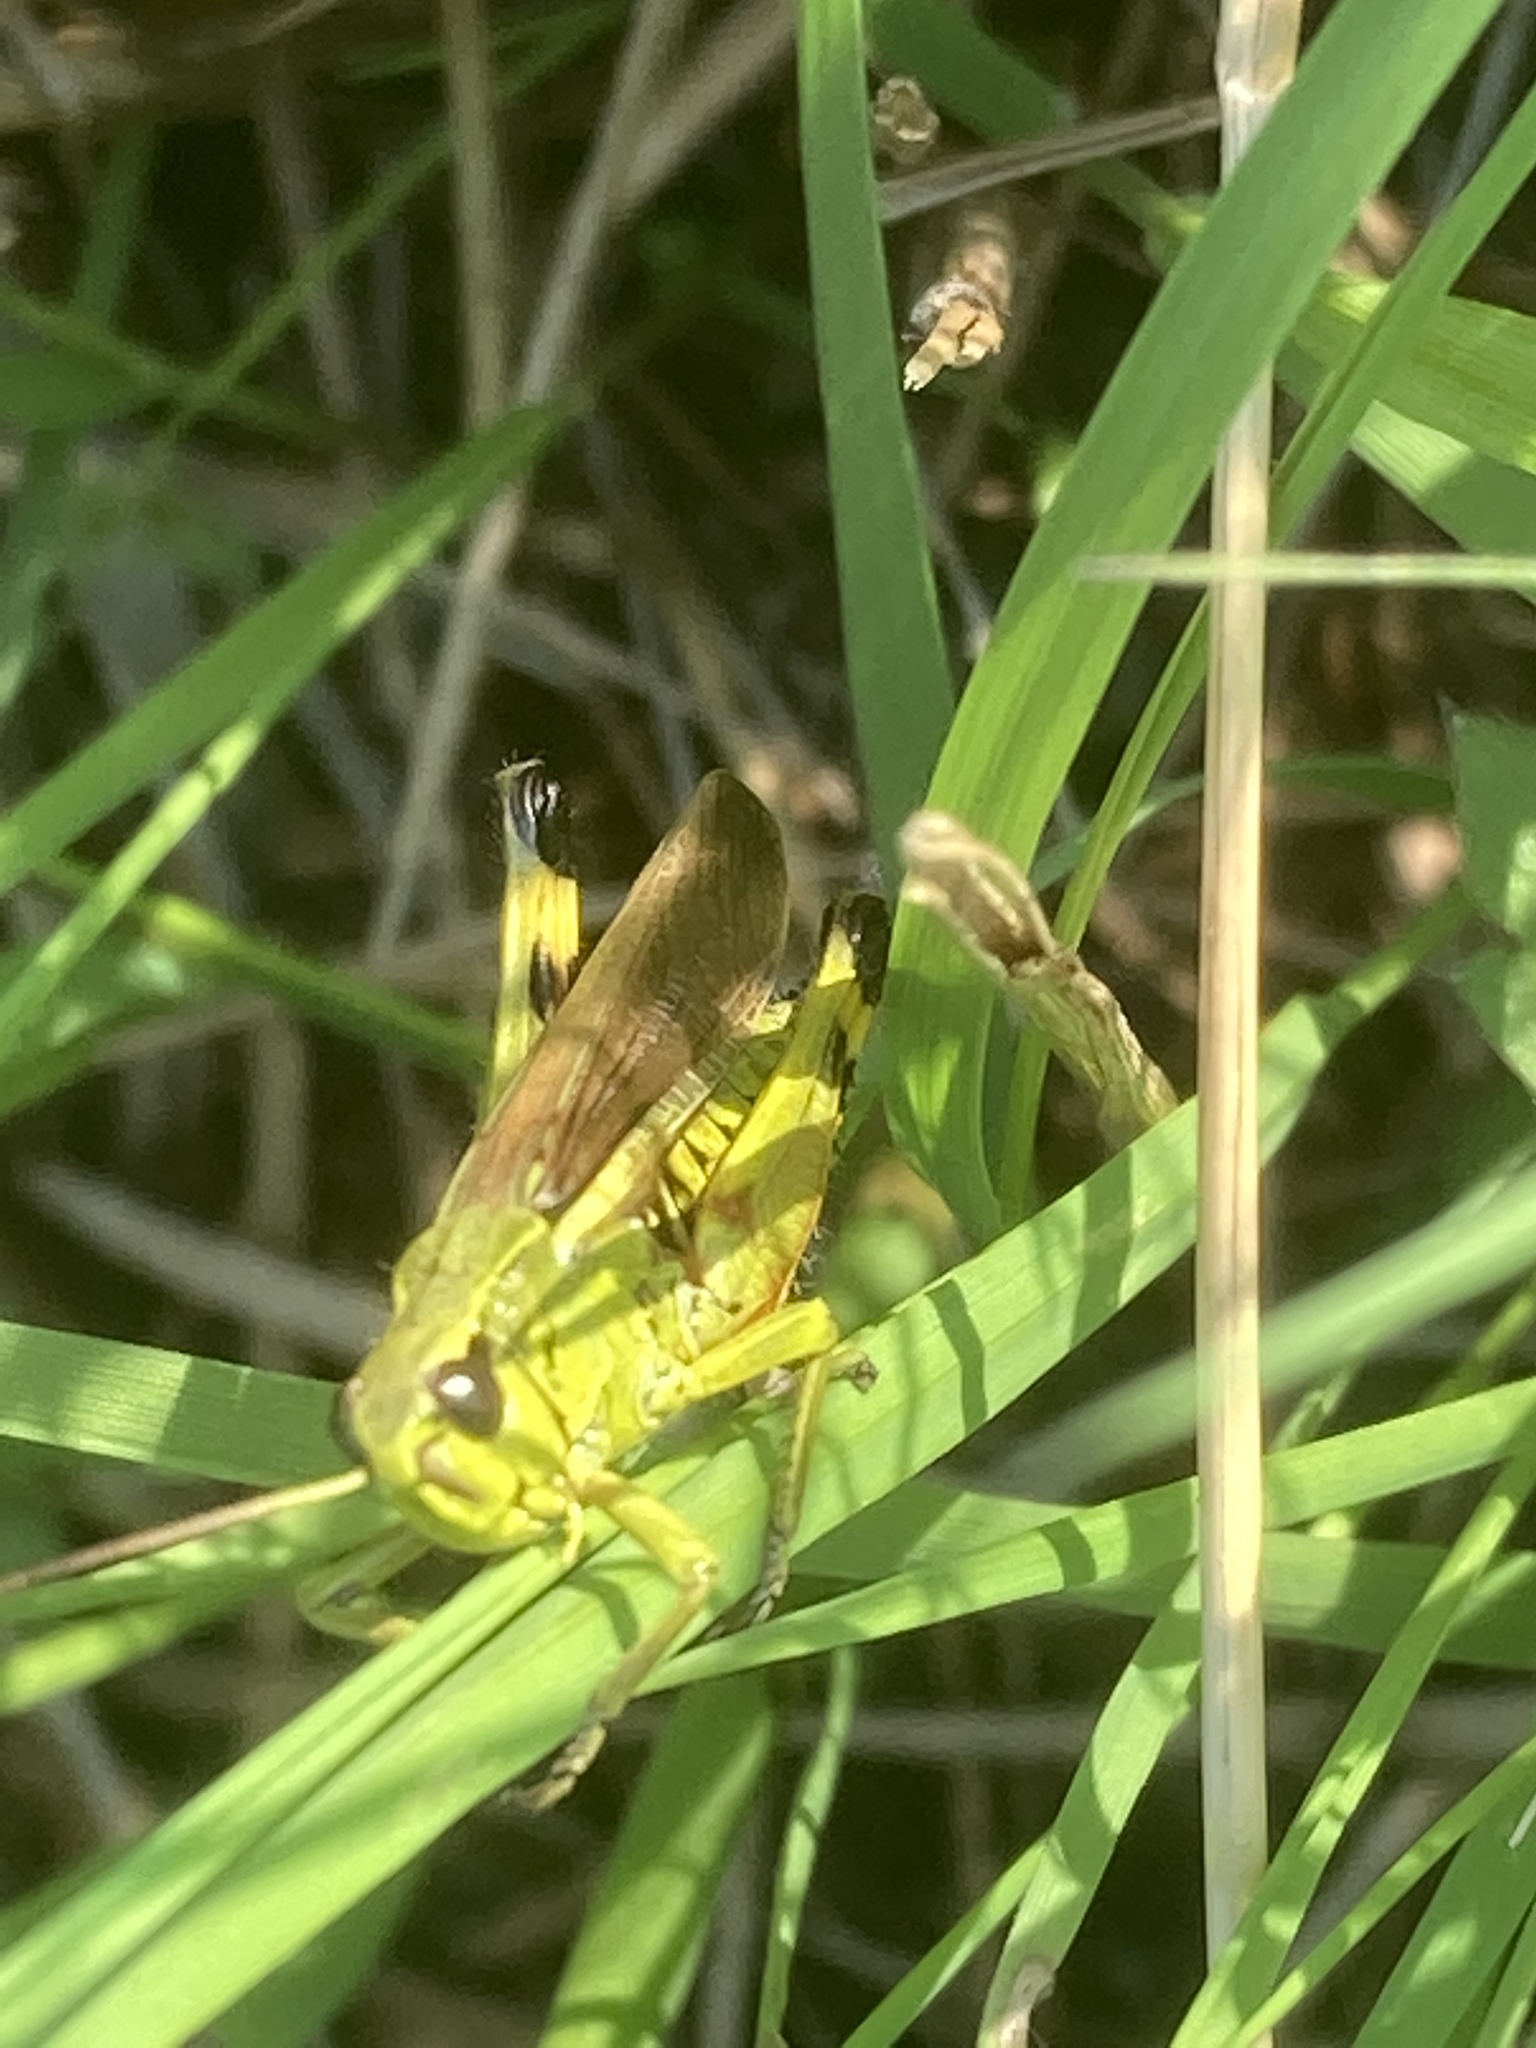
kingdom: Animalia
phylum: Arthropoda
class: Insecta
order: Orthoptera
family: Acrididae
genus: Stethophyma
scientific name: Stethophyma grossum
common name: Large marsh grasshopper
